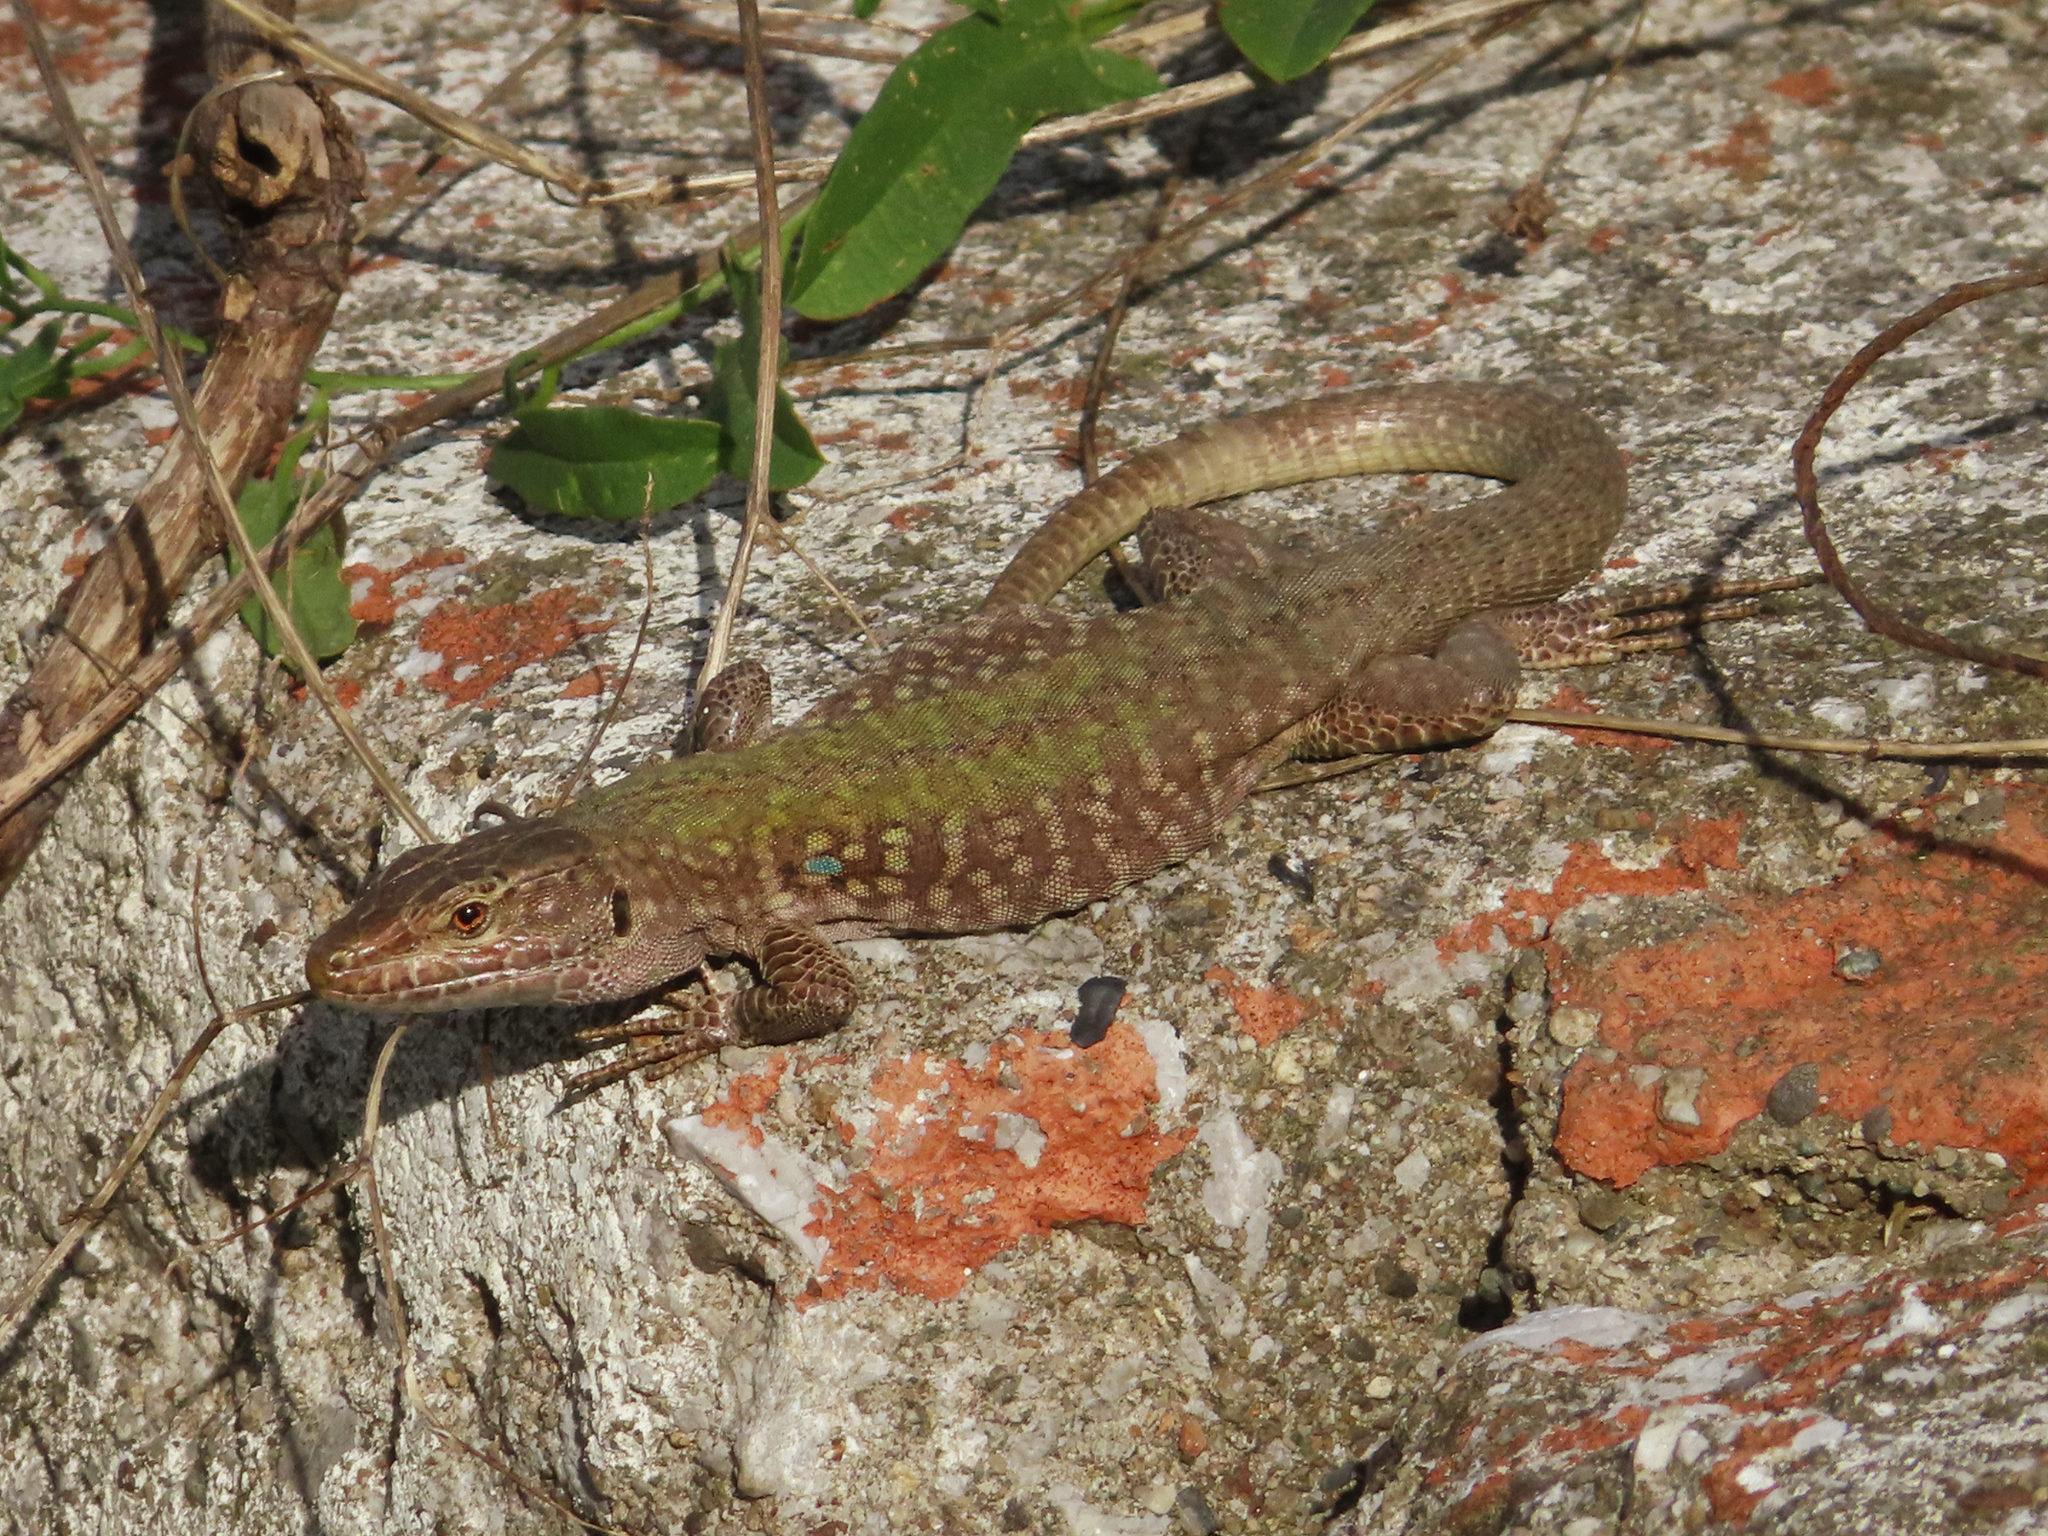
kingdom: Animalia
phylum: Chordata
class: Squamata
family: Lacertidae
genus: Podarcis
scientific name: Podarcis siculus
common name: Italian wall lizard
